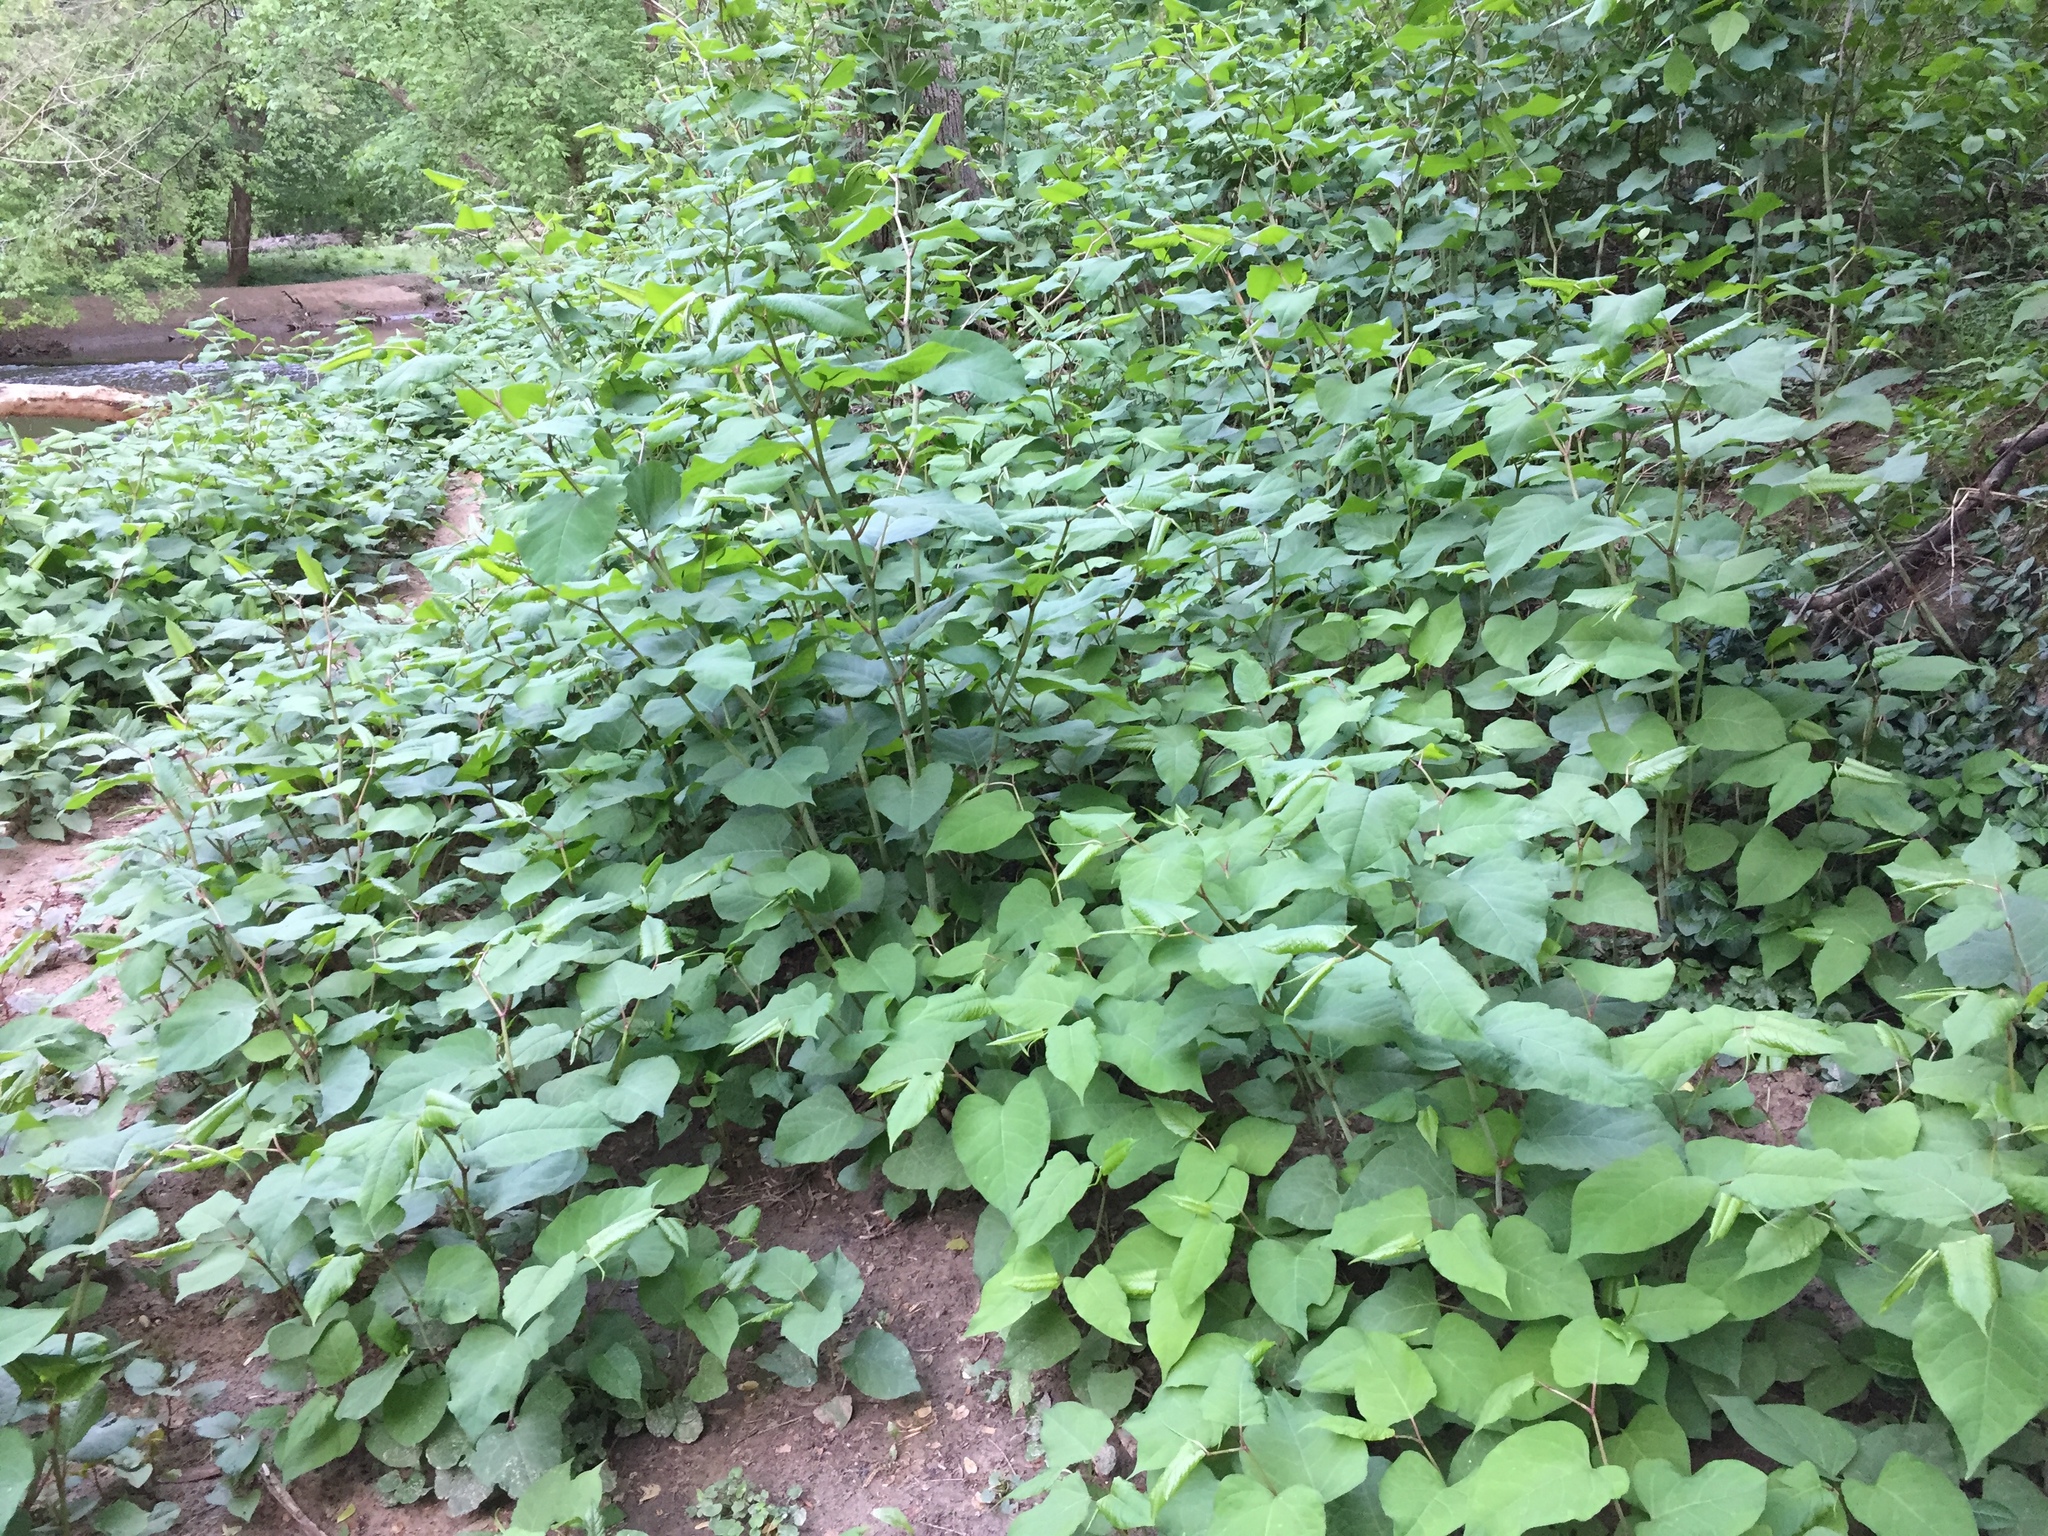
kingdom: Plantae
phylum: Tracheophyta
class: Magnoliopsida
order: Caryophyllales
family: Polygonaceae
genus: Reynoutria
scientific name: Reynoutria japonica
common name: Japanese knotweed
